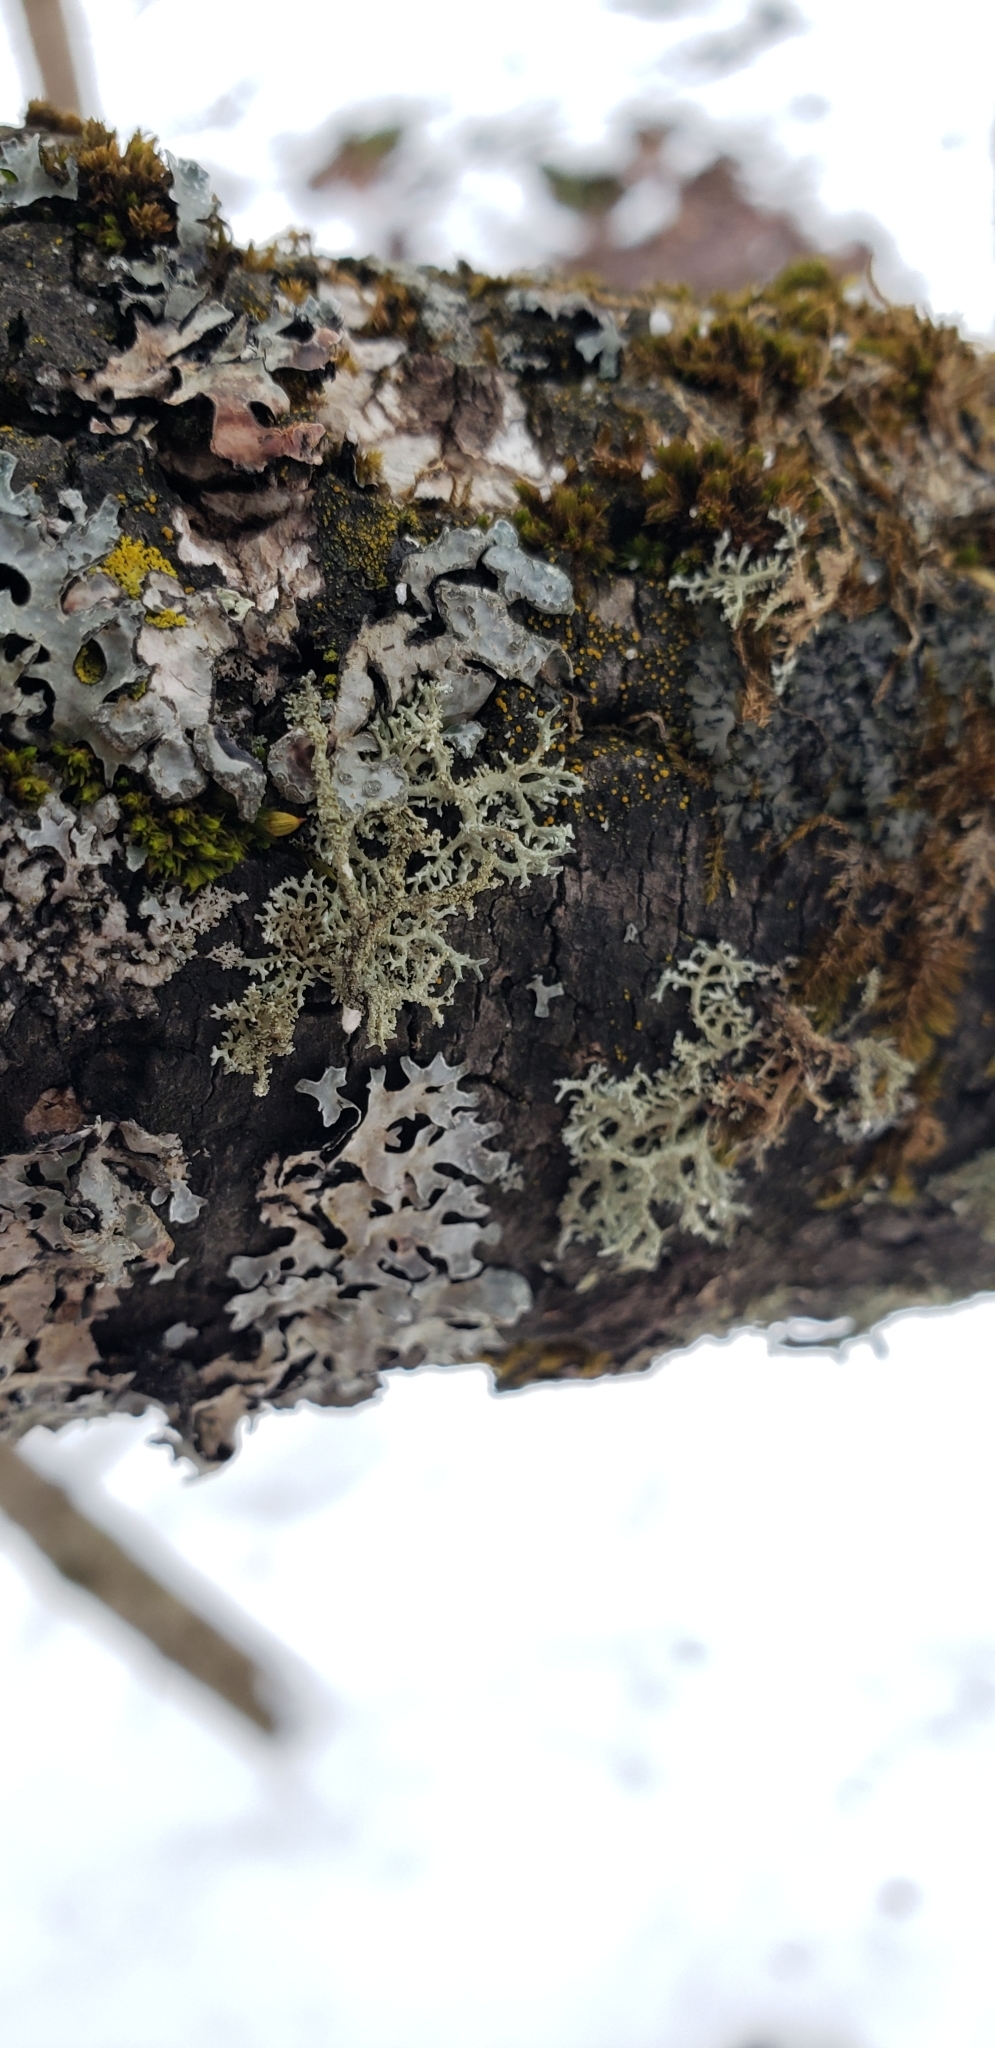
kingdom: Fungi
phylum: Ascomycota
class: Lecanoromycetes
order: Lecanorales
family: Parmeliaceae
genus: Evernia
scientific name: Evernia mesomorpha
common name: Boreal oak moss lichen
